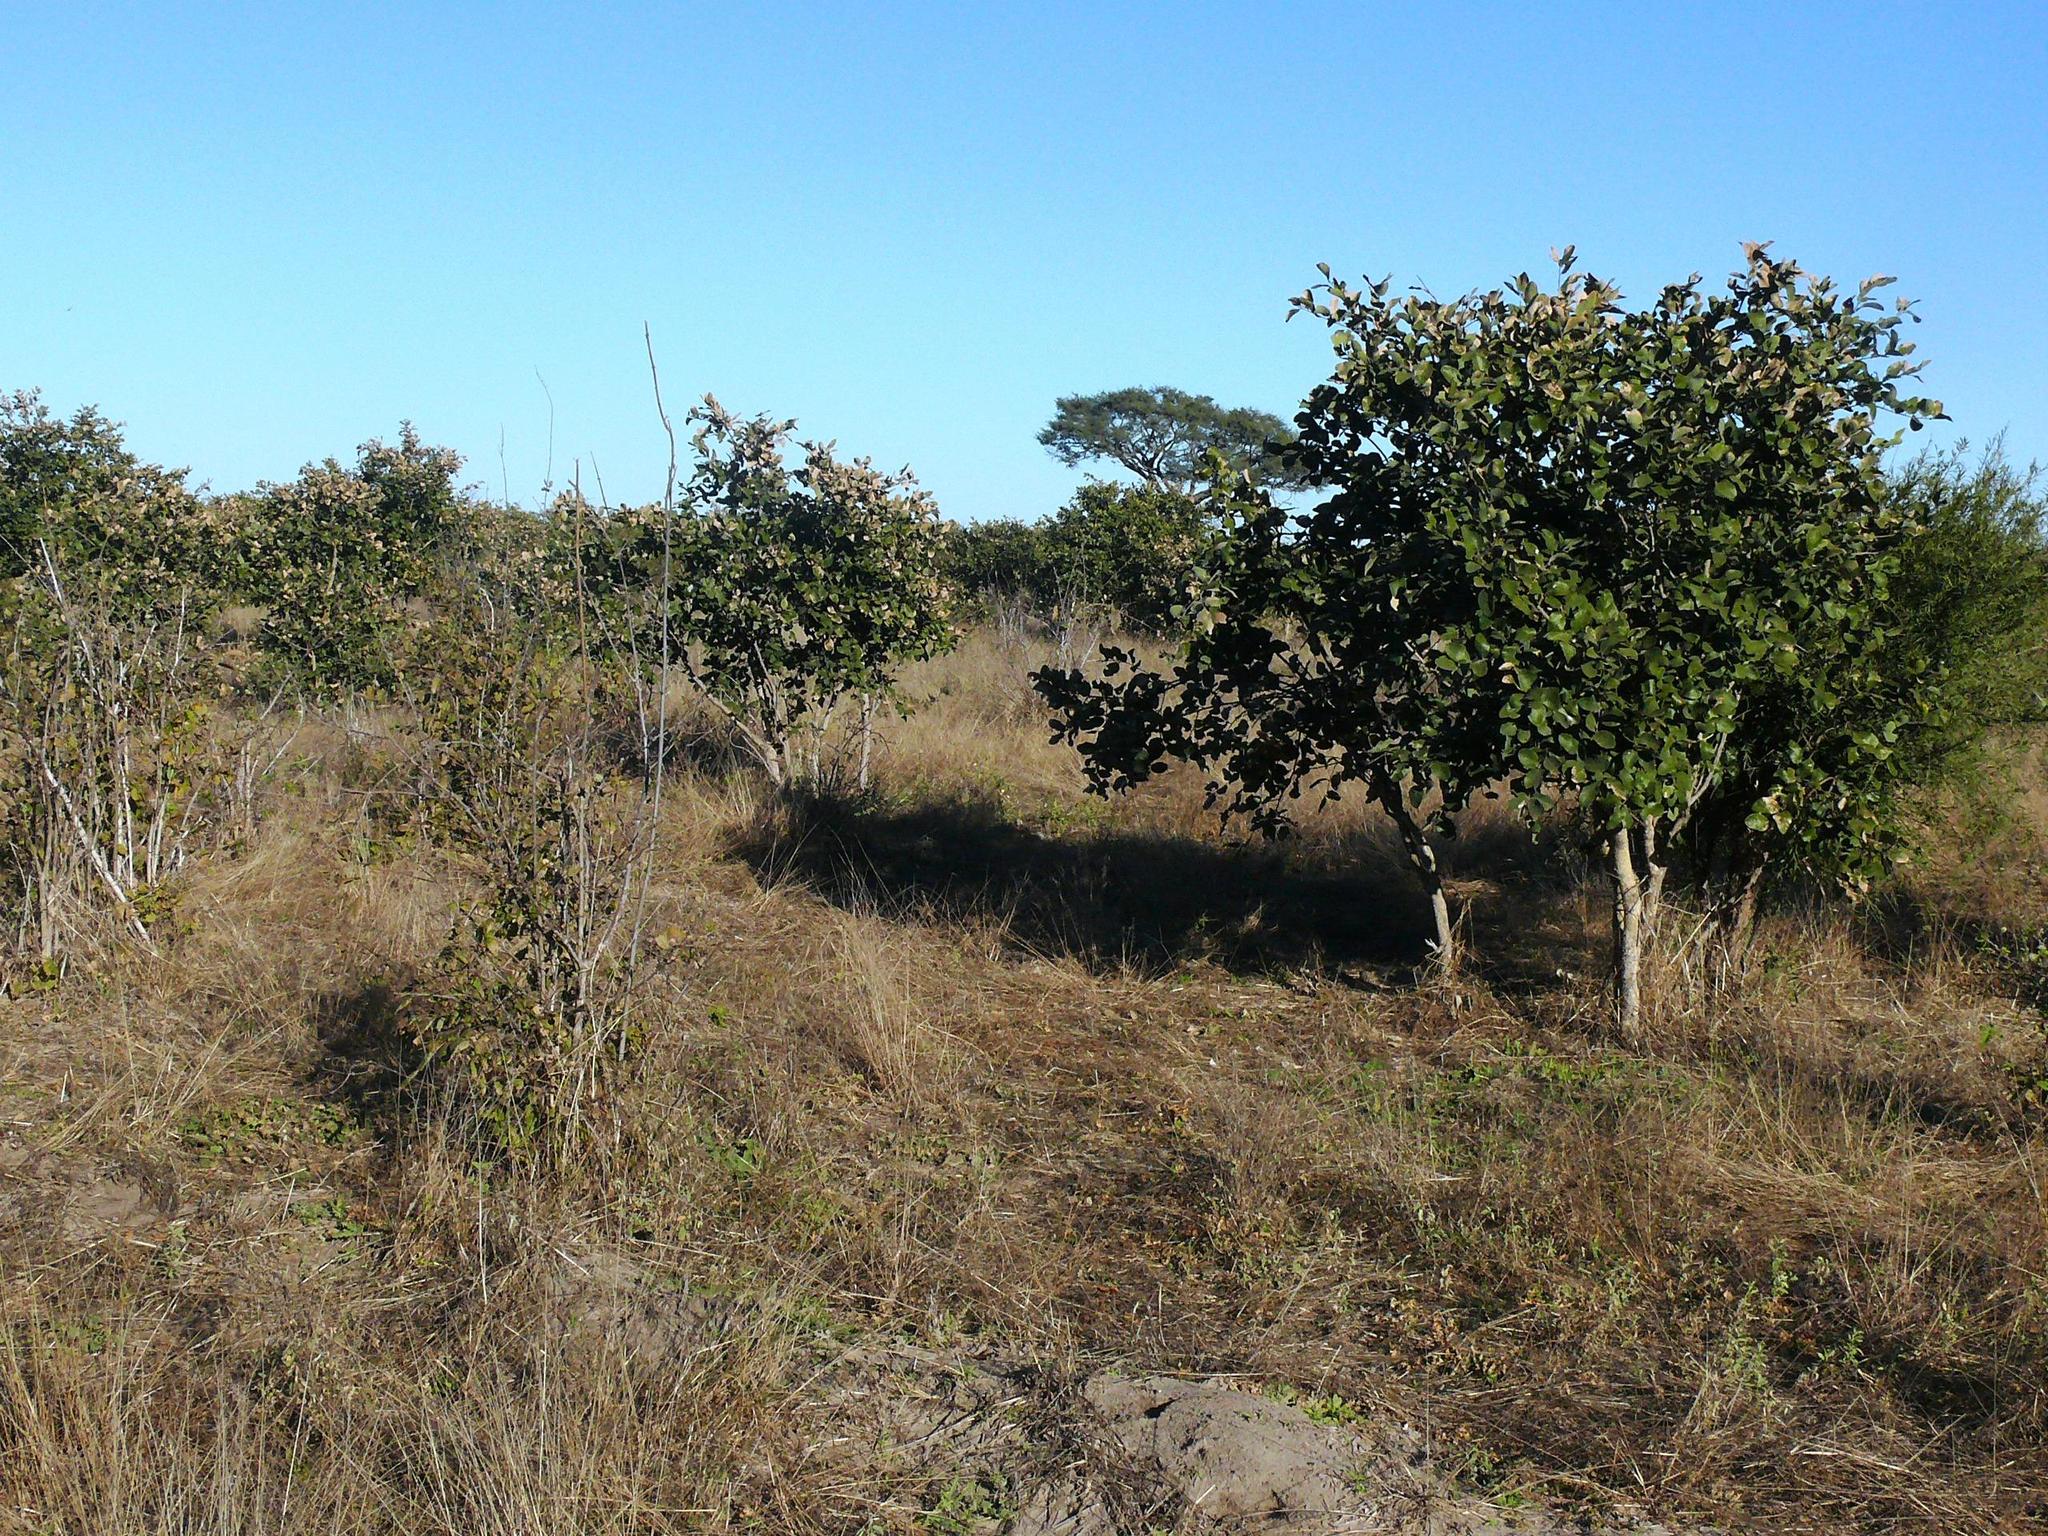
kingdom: Plantae
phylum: Tracheophyta
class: Magnoliopsida
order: Fabales
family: Fabaceae
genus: Philenoptera
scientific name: Philenoptera violacea
